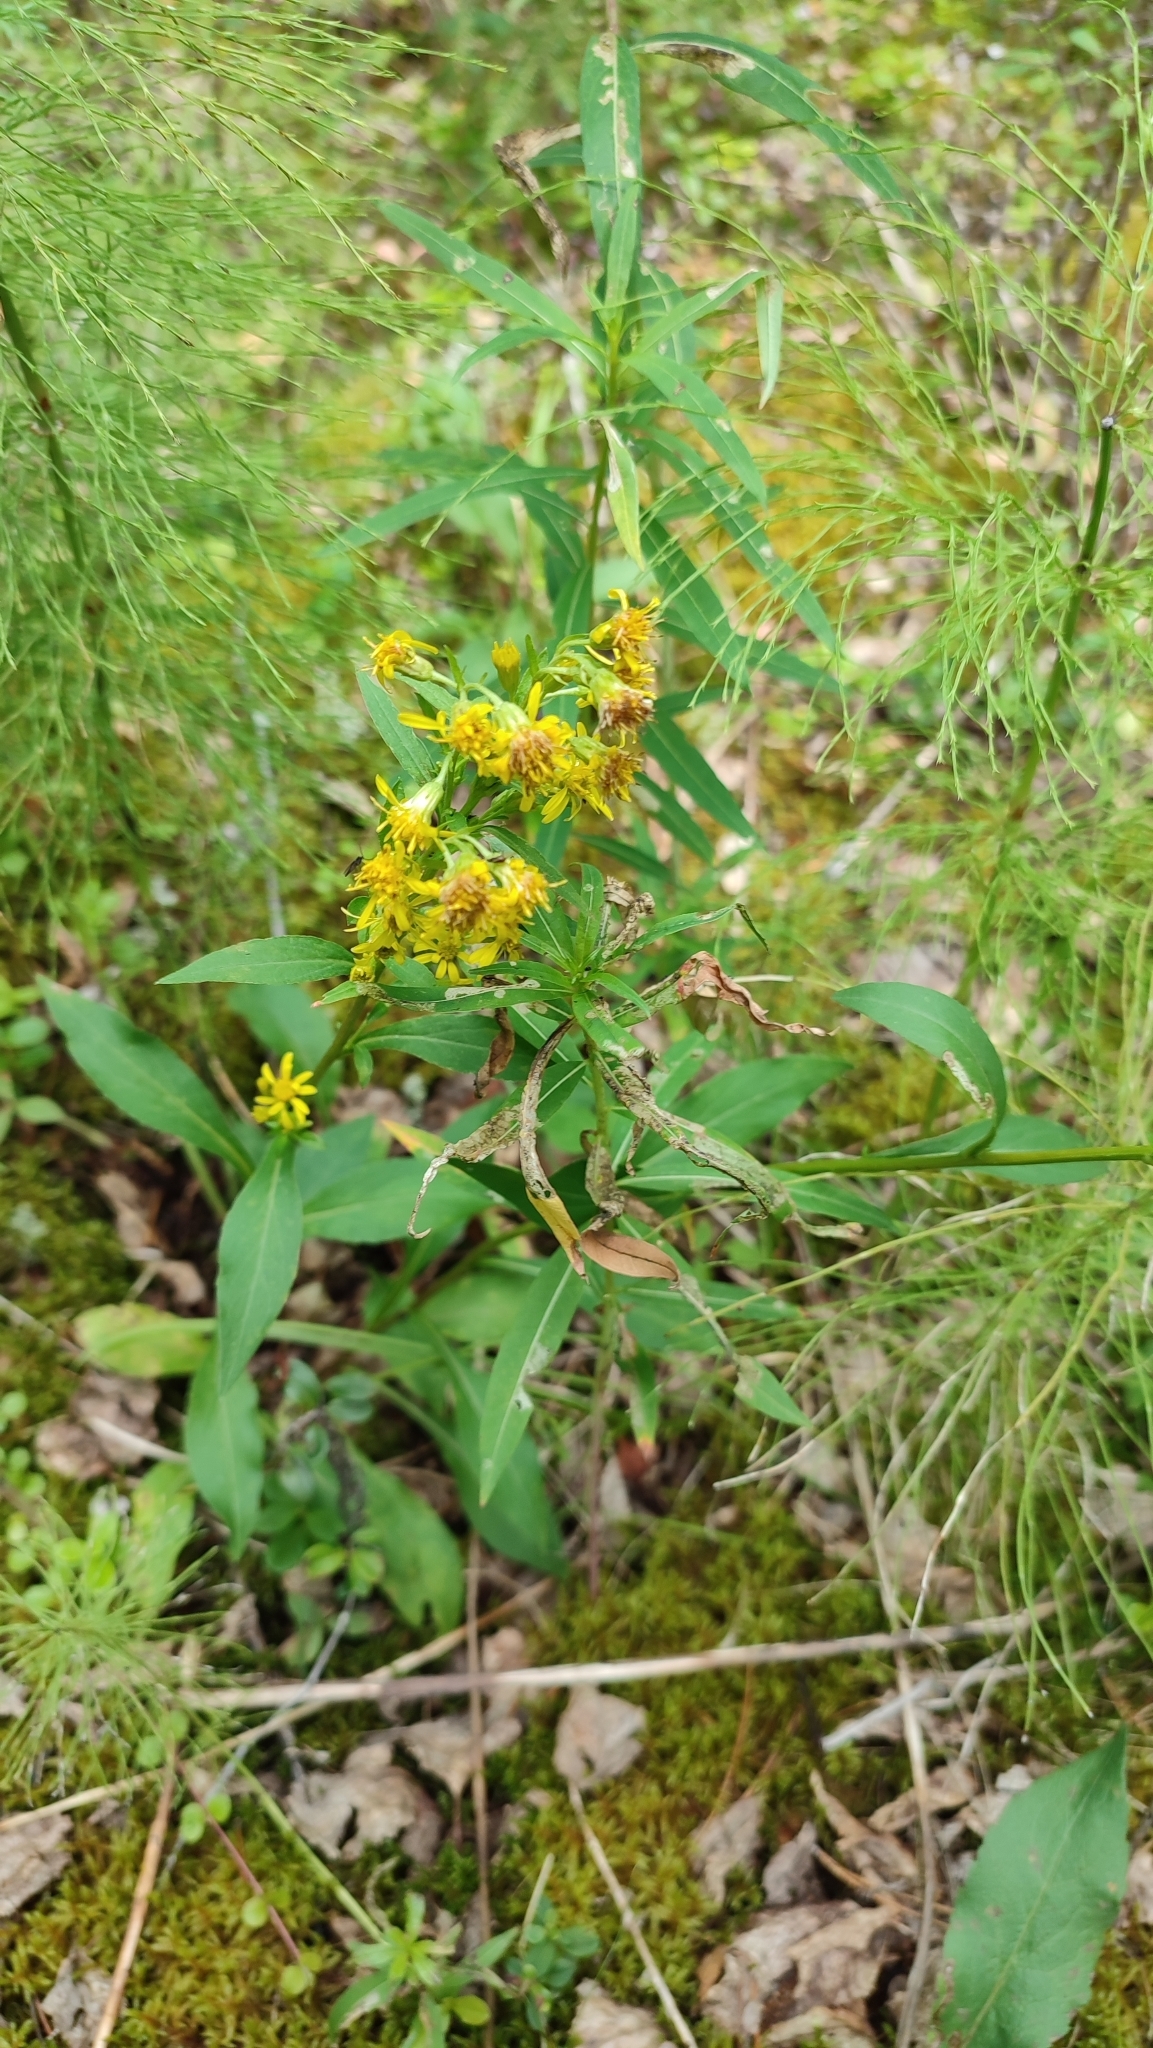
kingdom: Plantae
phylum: Tracheophyta
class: Magnoliopsida
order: Asterales
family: Asteraceae
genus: Solidago
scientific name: Solidago virgaurea
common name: Goldenrod
